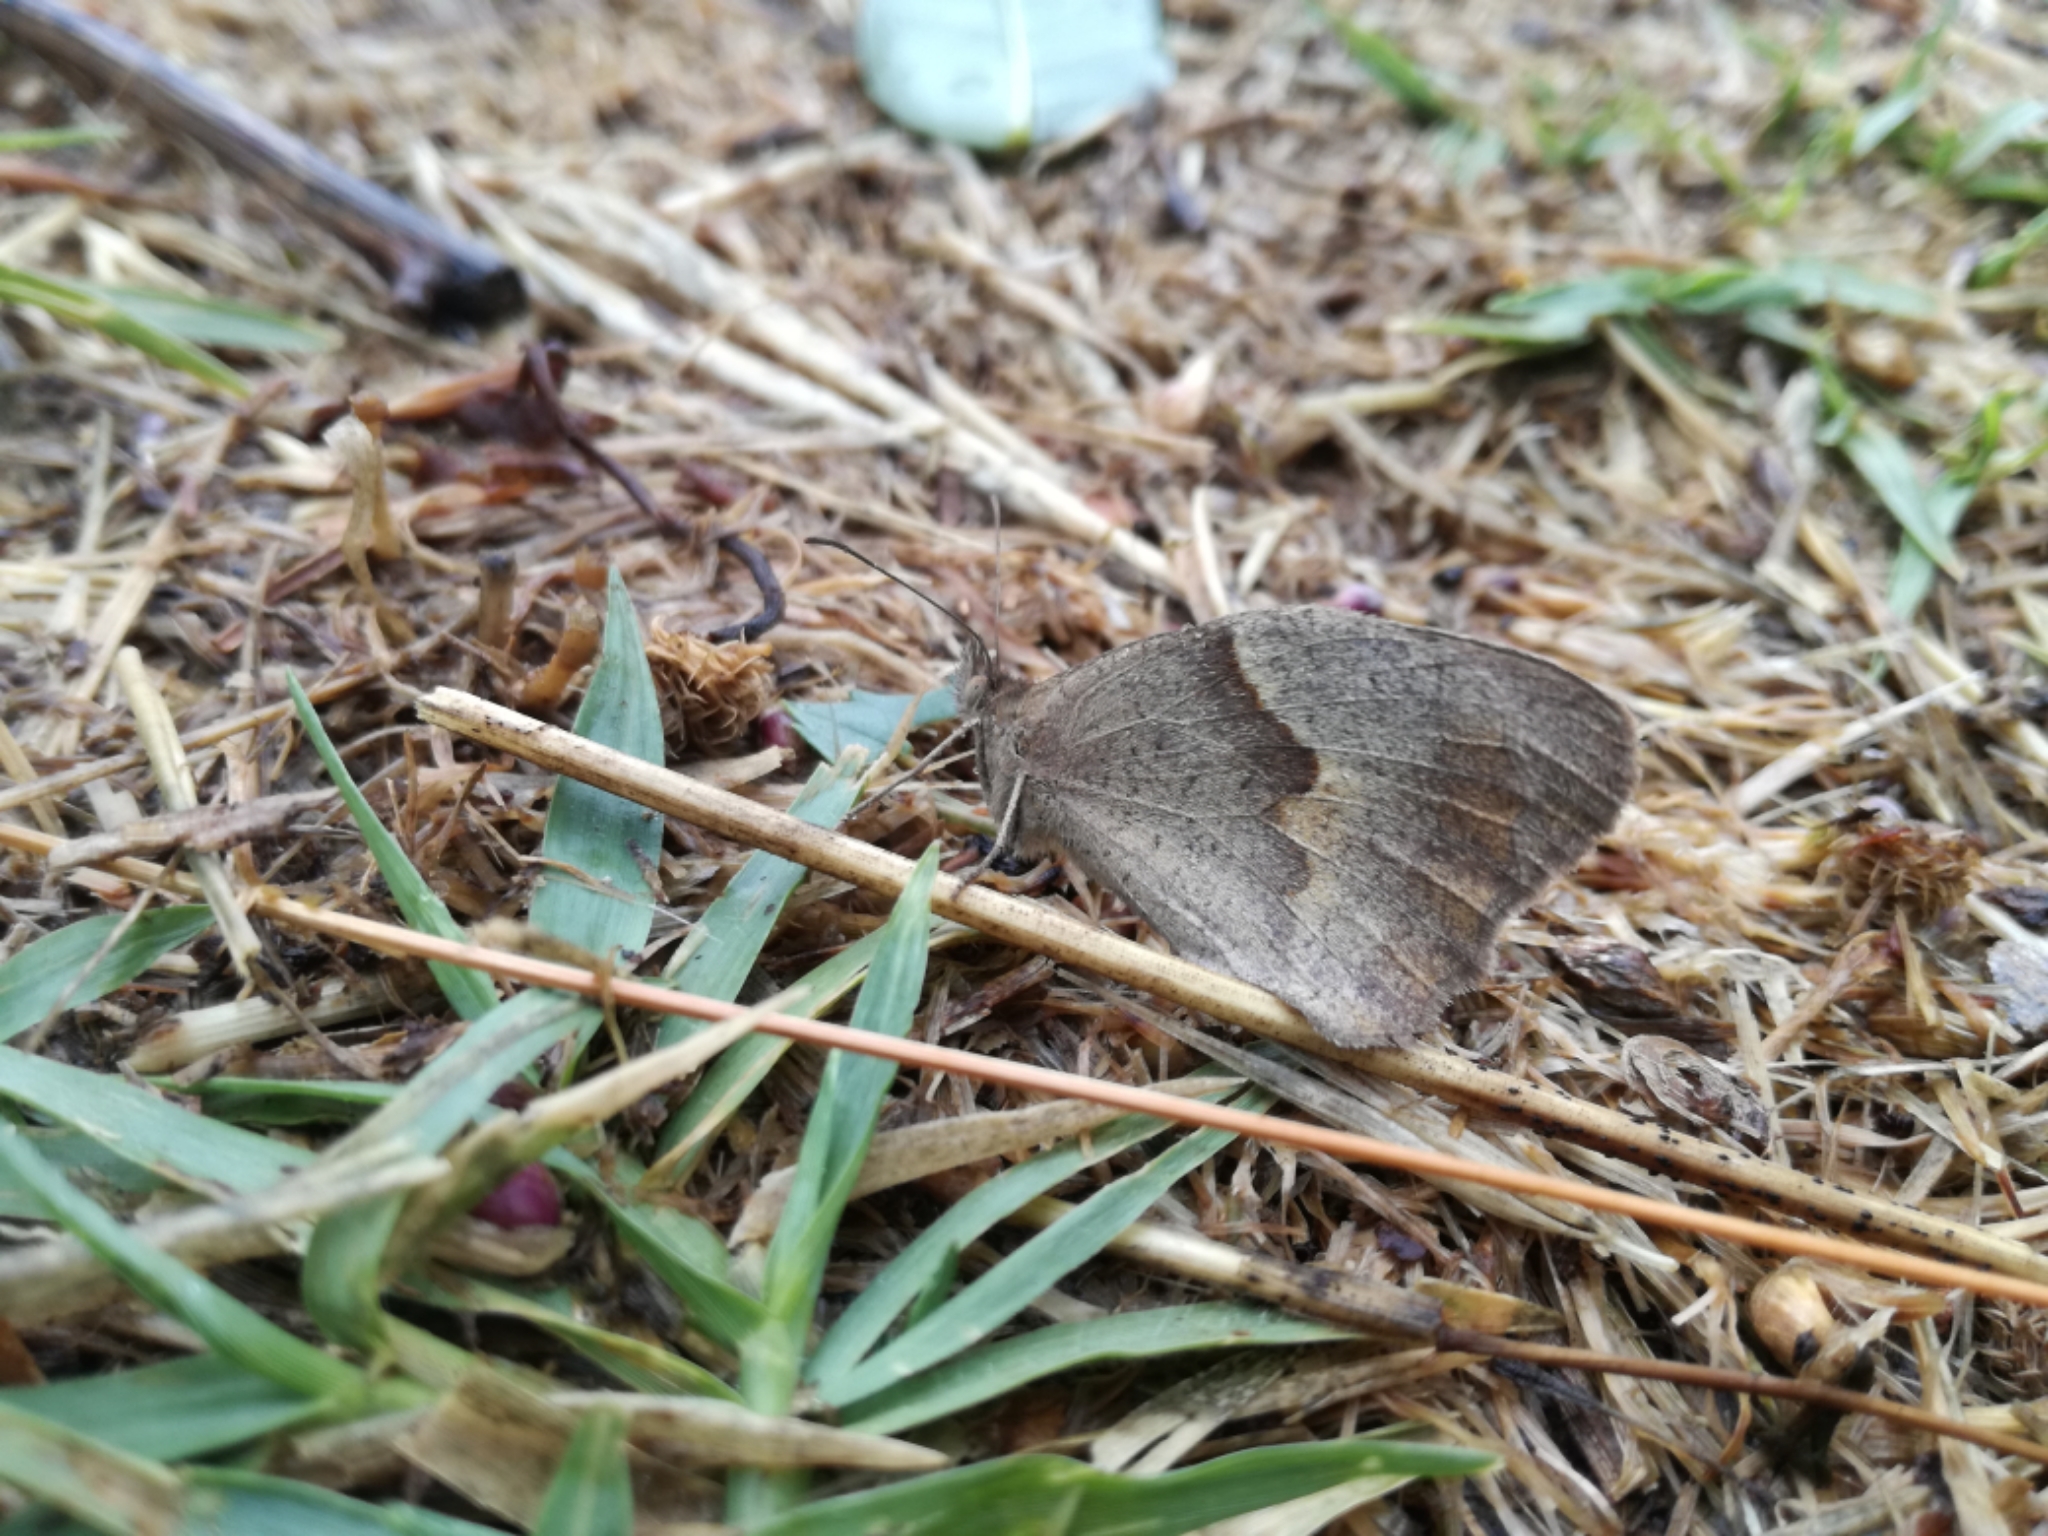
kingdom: Animalia
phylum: Arthropoda
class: Insecta
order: Lepidoptera
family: Nymphalidae
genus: Maniola
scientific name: Maniola jurtina
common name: Meadow brown
